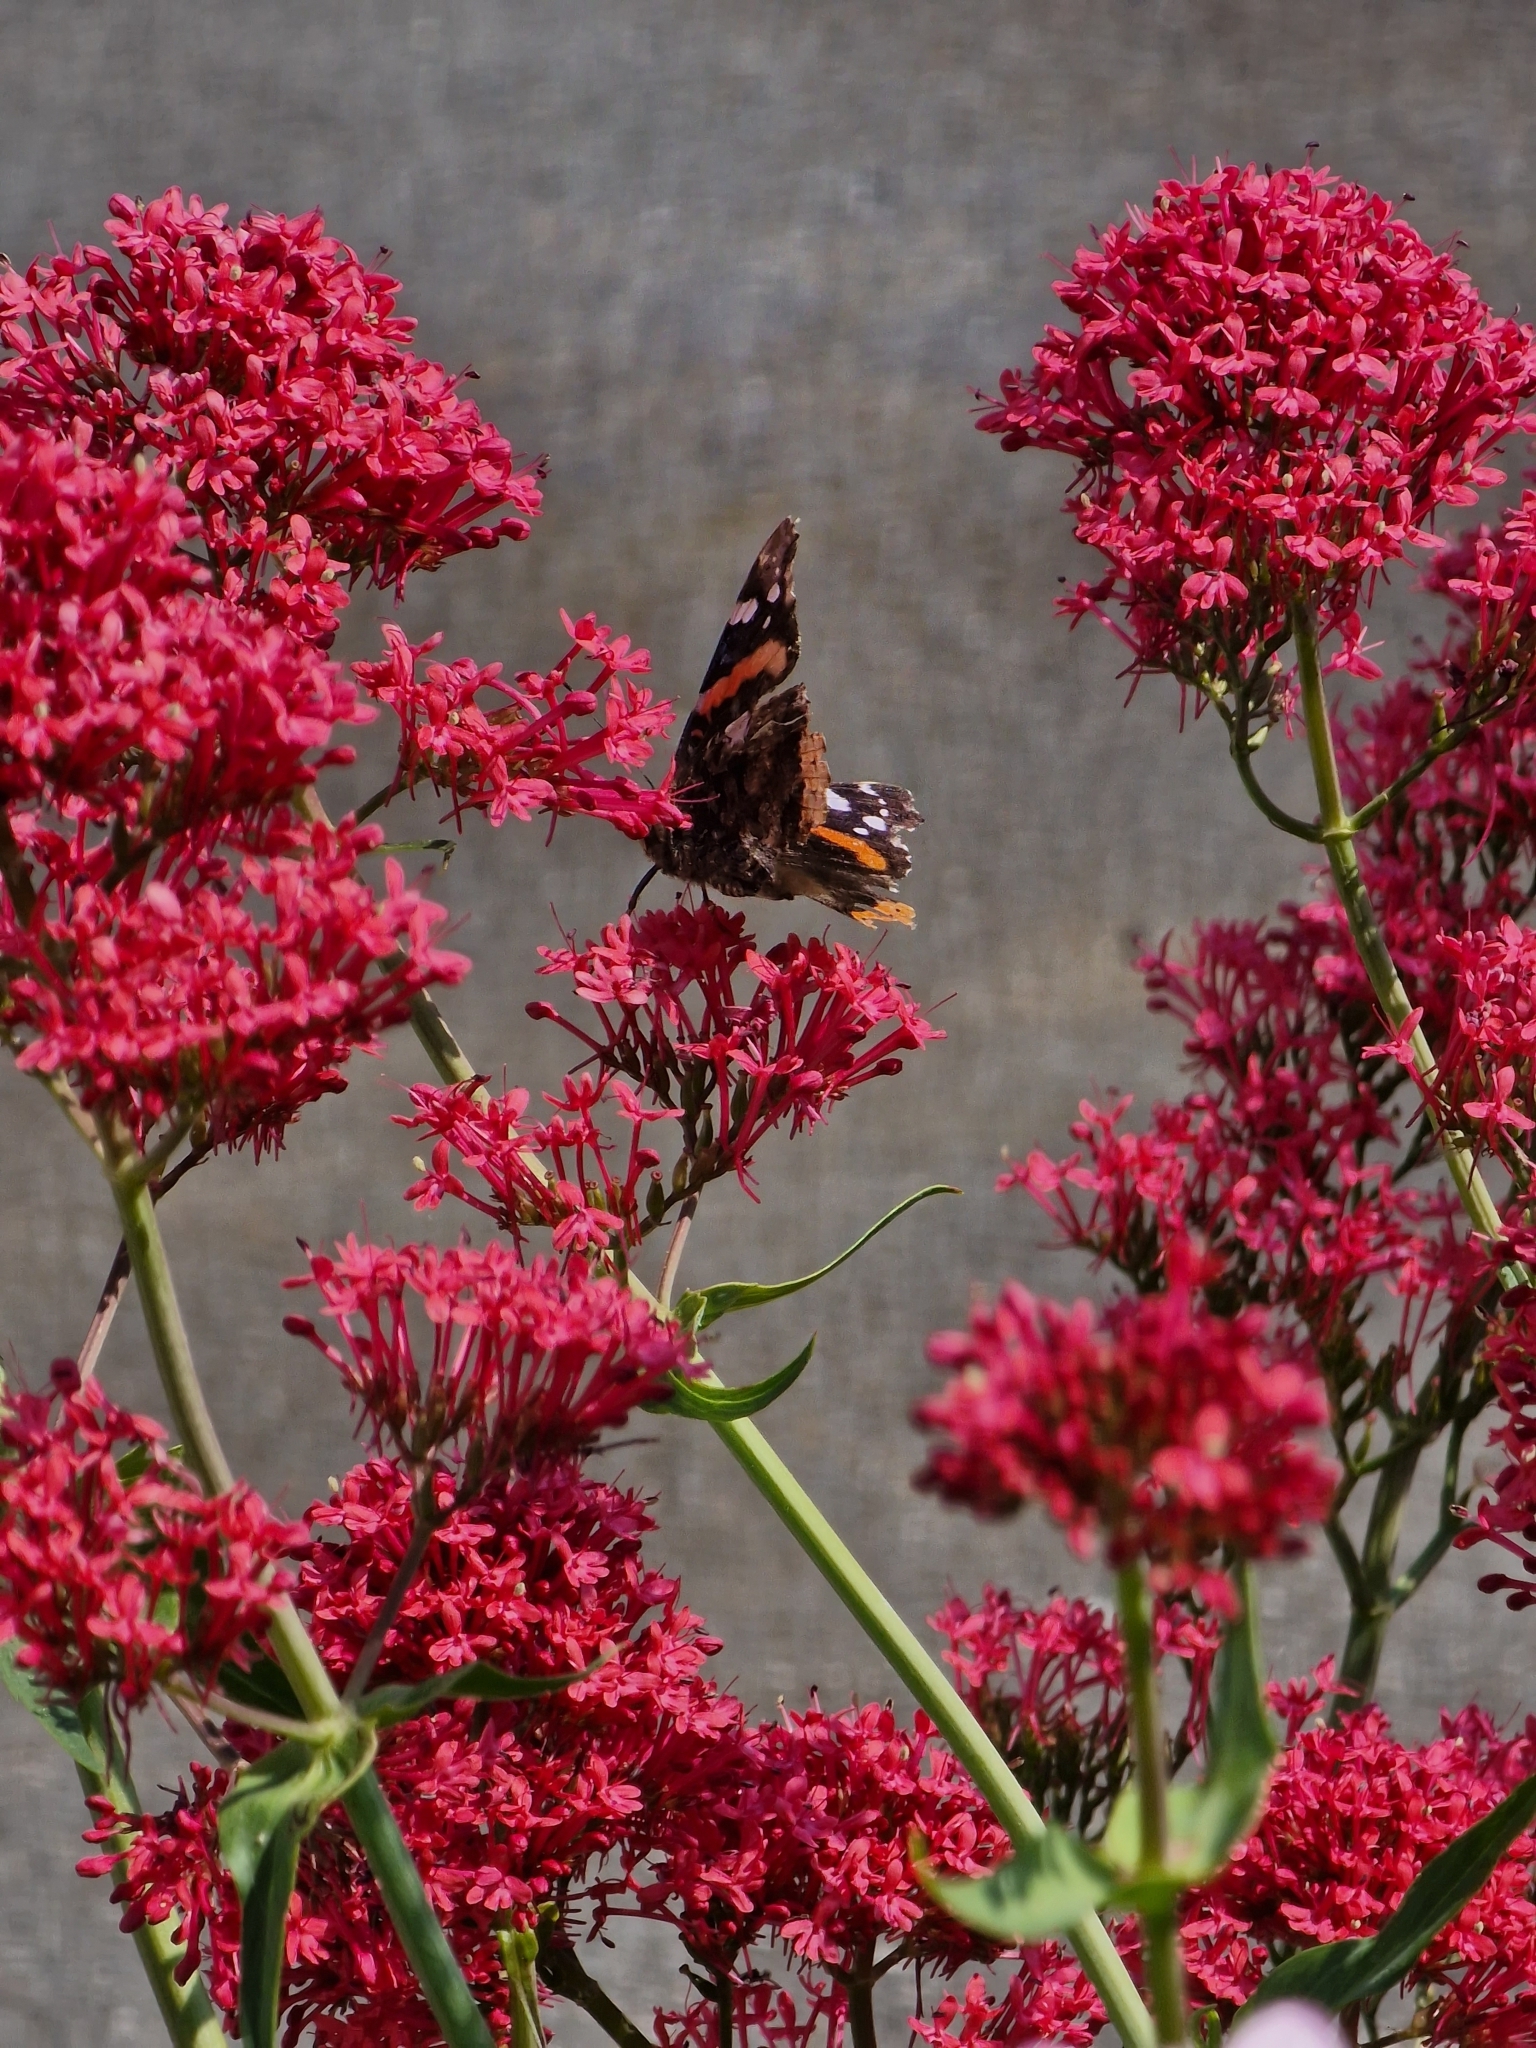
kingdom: Animalia
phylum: Arthropoda
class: Insecta
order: Lepidoptera
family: Nymphalidae
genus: Vanessa
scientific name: Vanessa atalanta
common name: Red admiral
